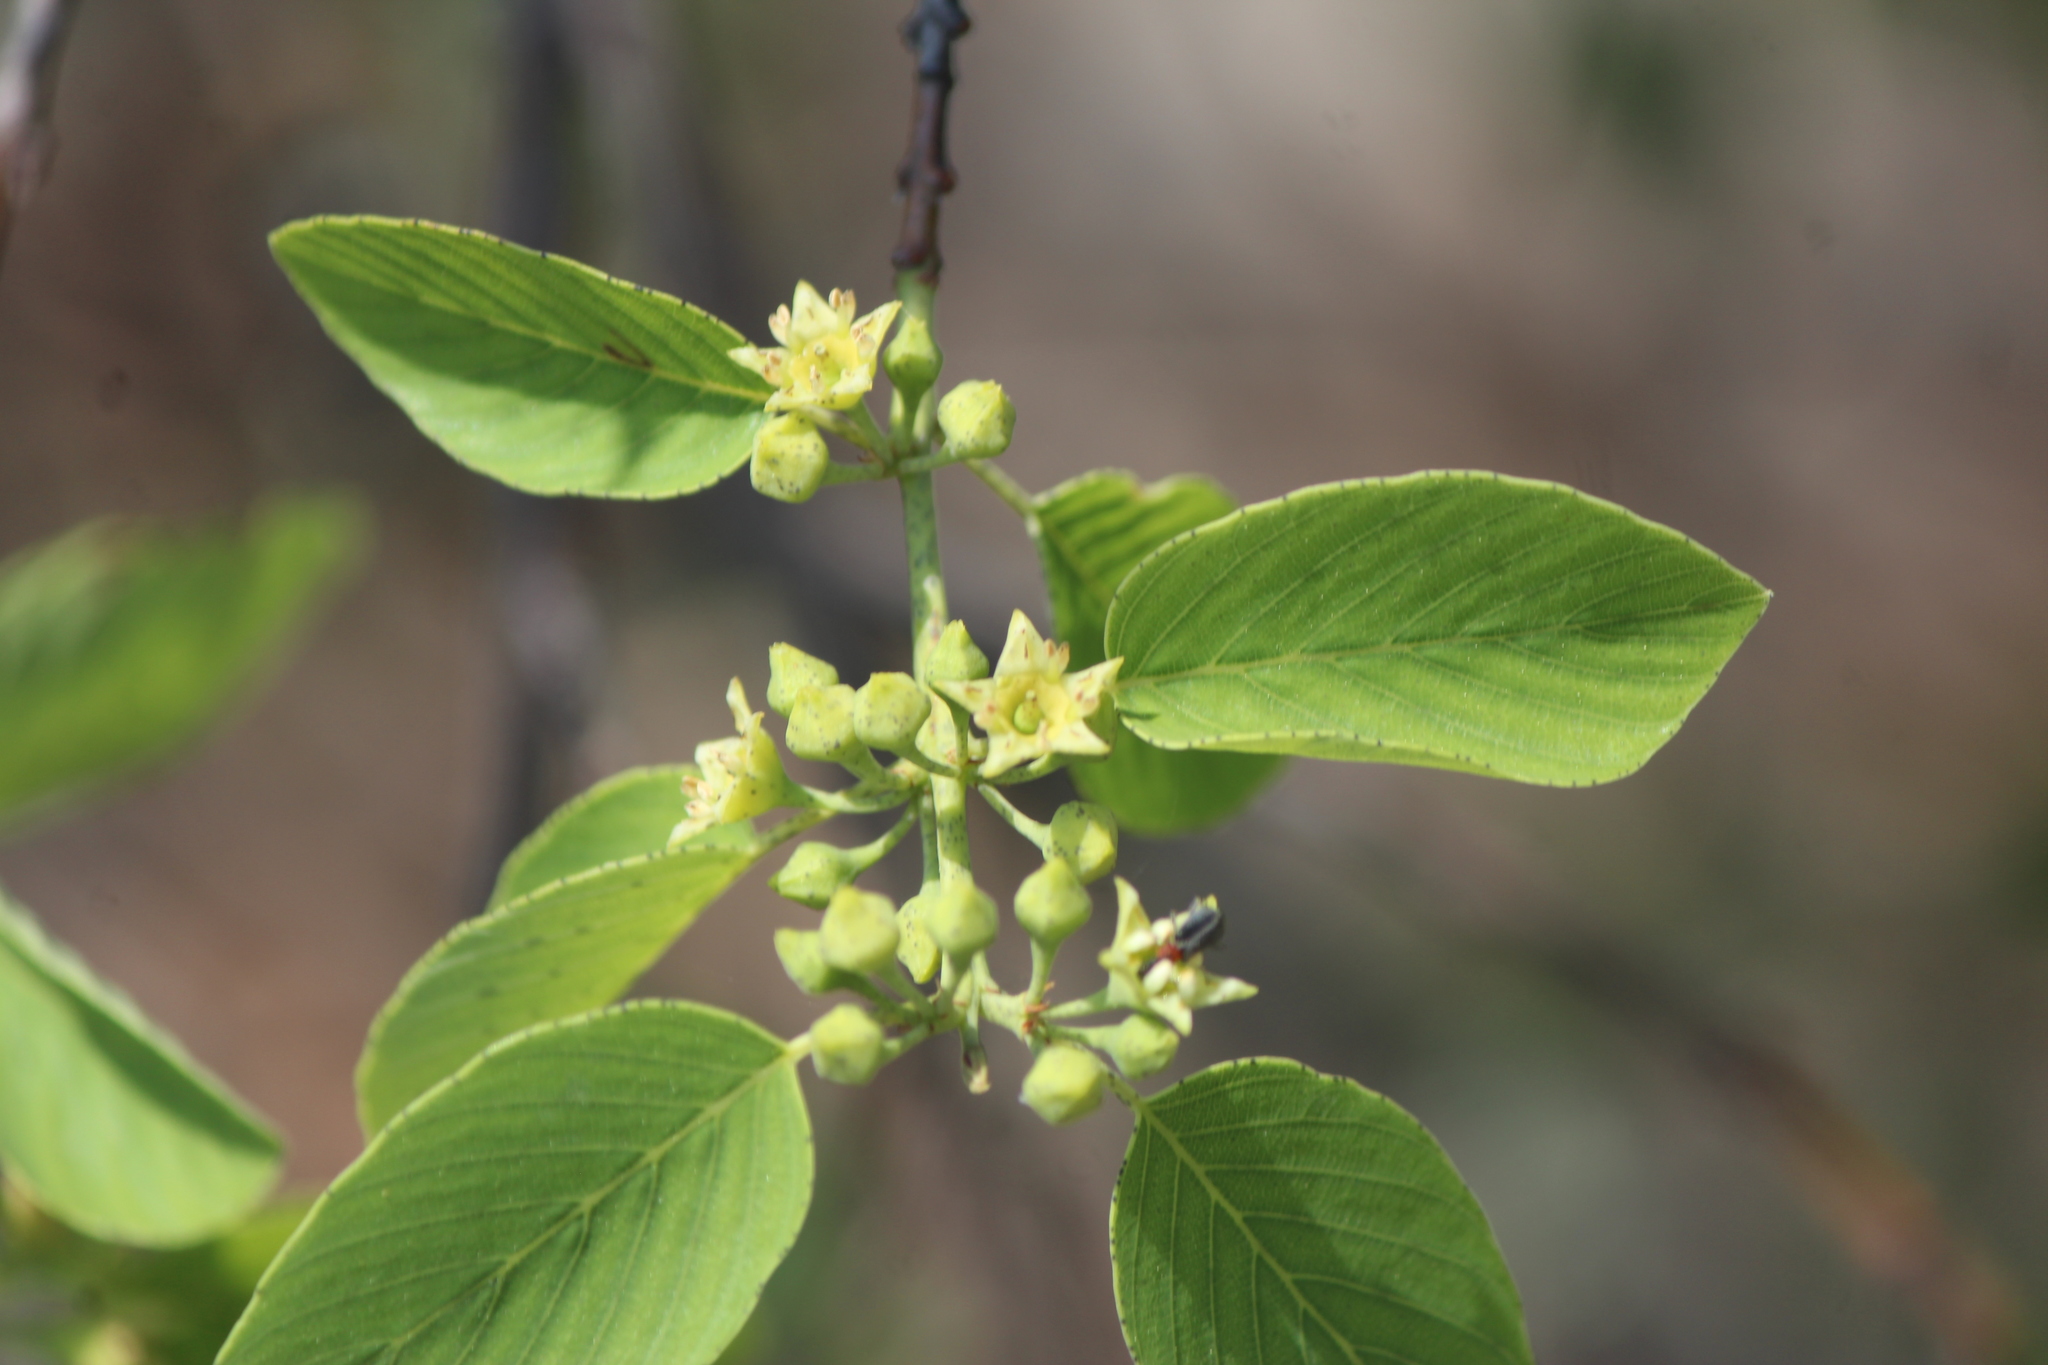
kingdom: Plantae
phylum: Tracheophyta
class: Magnoliopsida
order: Rosales
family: Rhamnaceae
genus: Karwinskia
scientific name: Karwinskia humboldtiana
